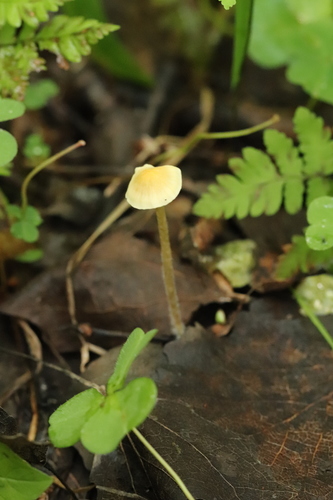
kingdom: Fungi
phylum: Basidiomycota
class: Agaricomycetes
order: Agaricales
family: Mycenaceae
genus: Mycena
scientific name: Mycena citrinomarginata
